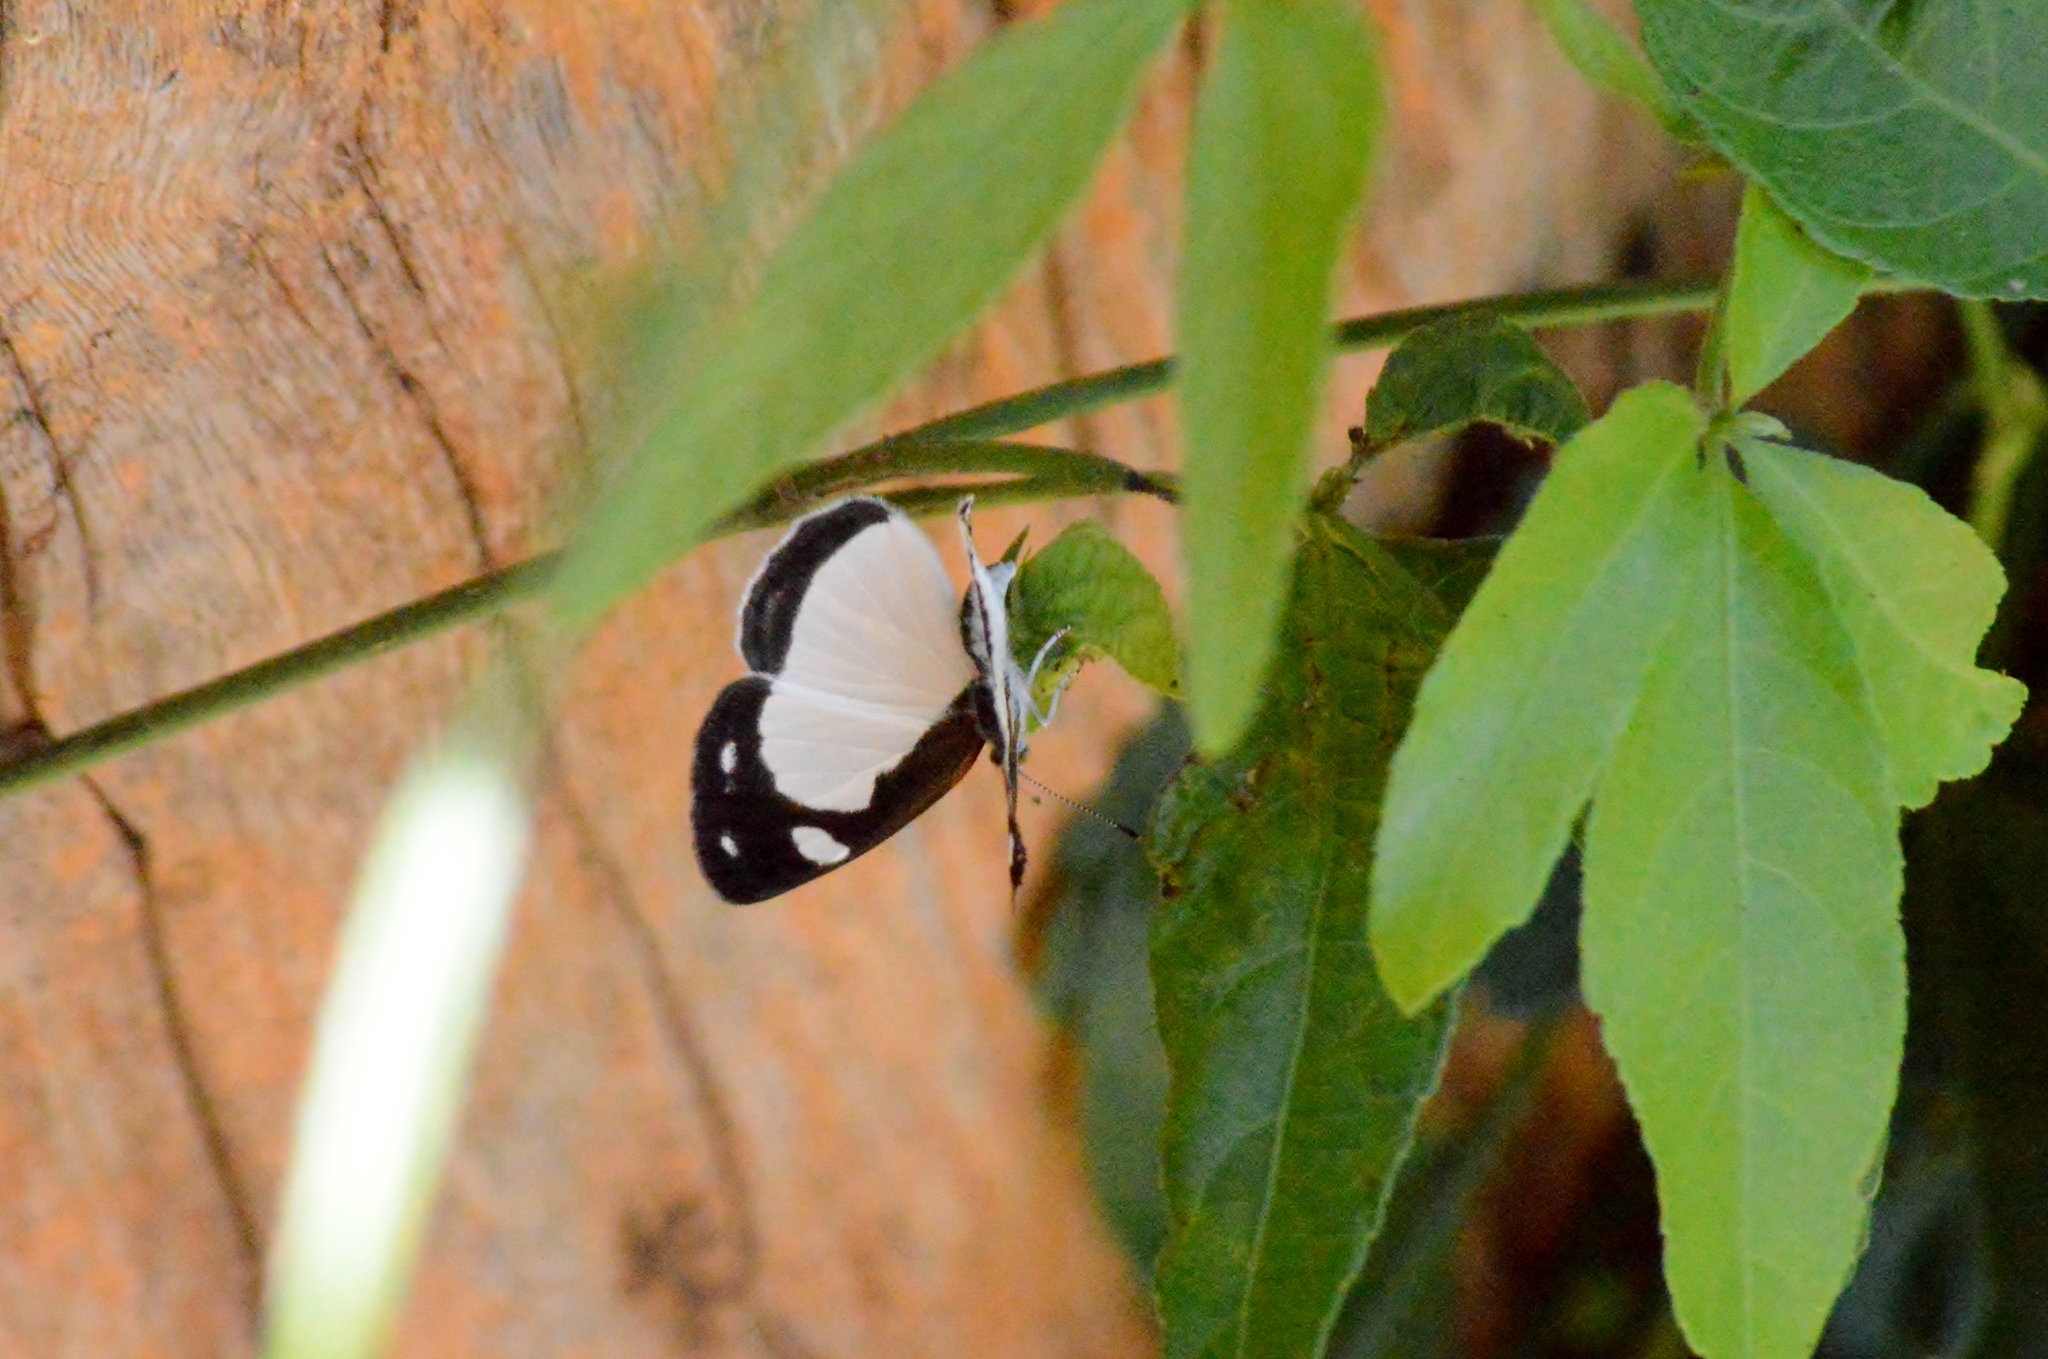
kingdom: Animalia
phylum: Arthropoda
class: Insecta
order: Lepidoptera
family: Nymphalidae
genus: Dynamine
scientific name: Dynamine agacles
